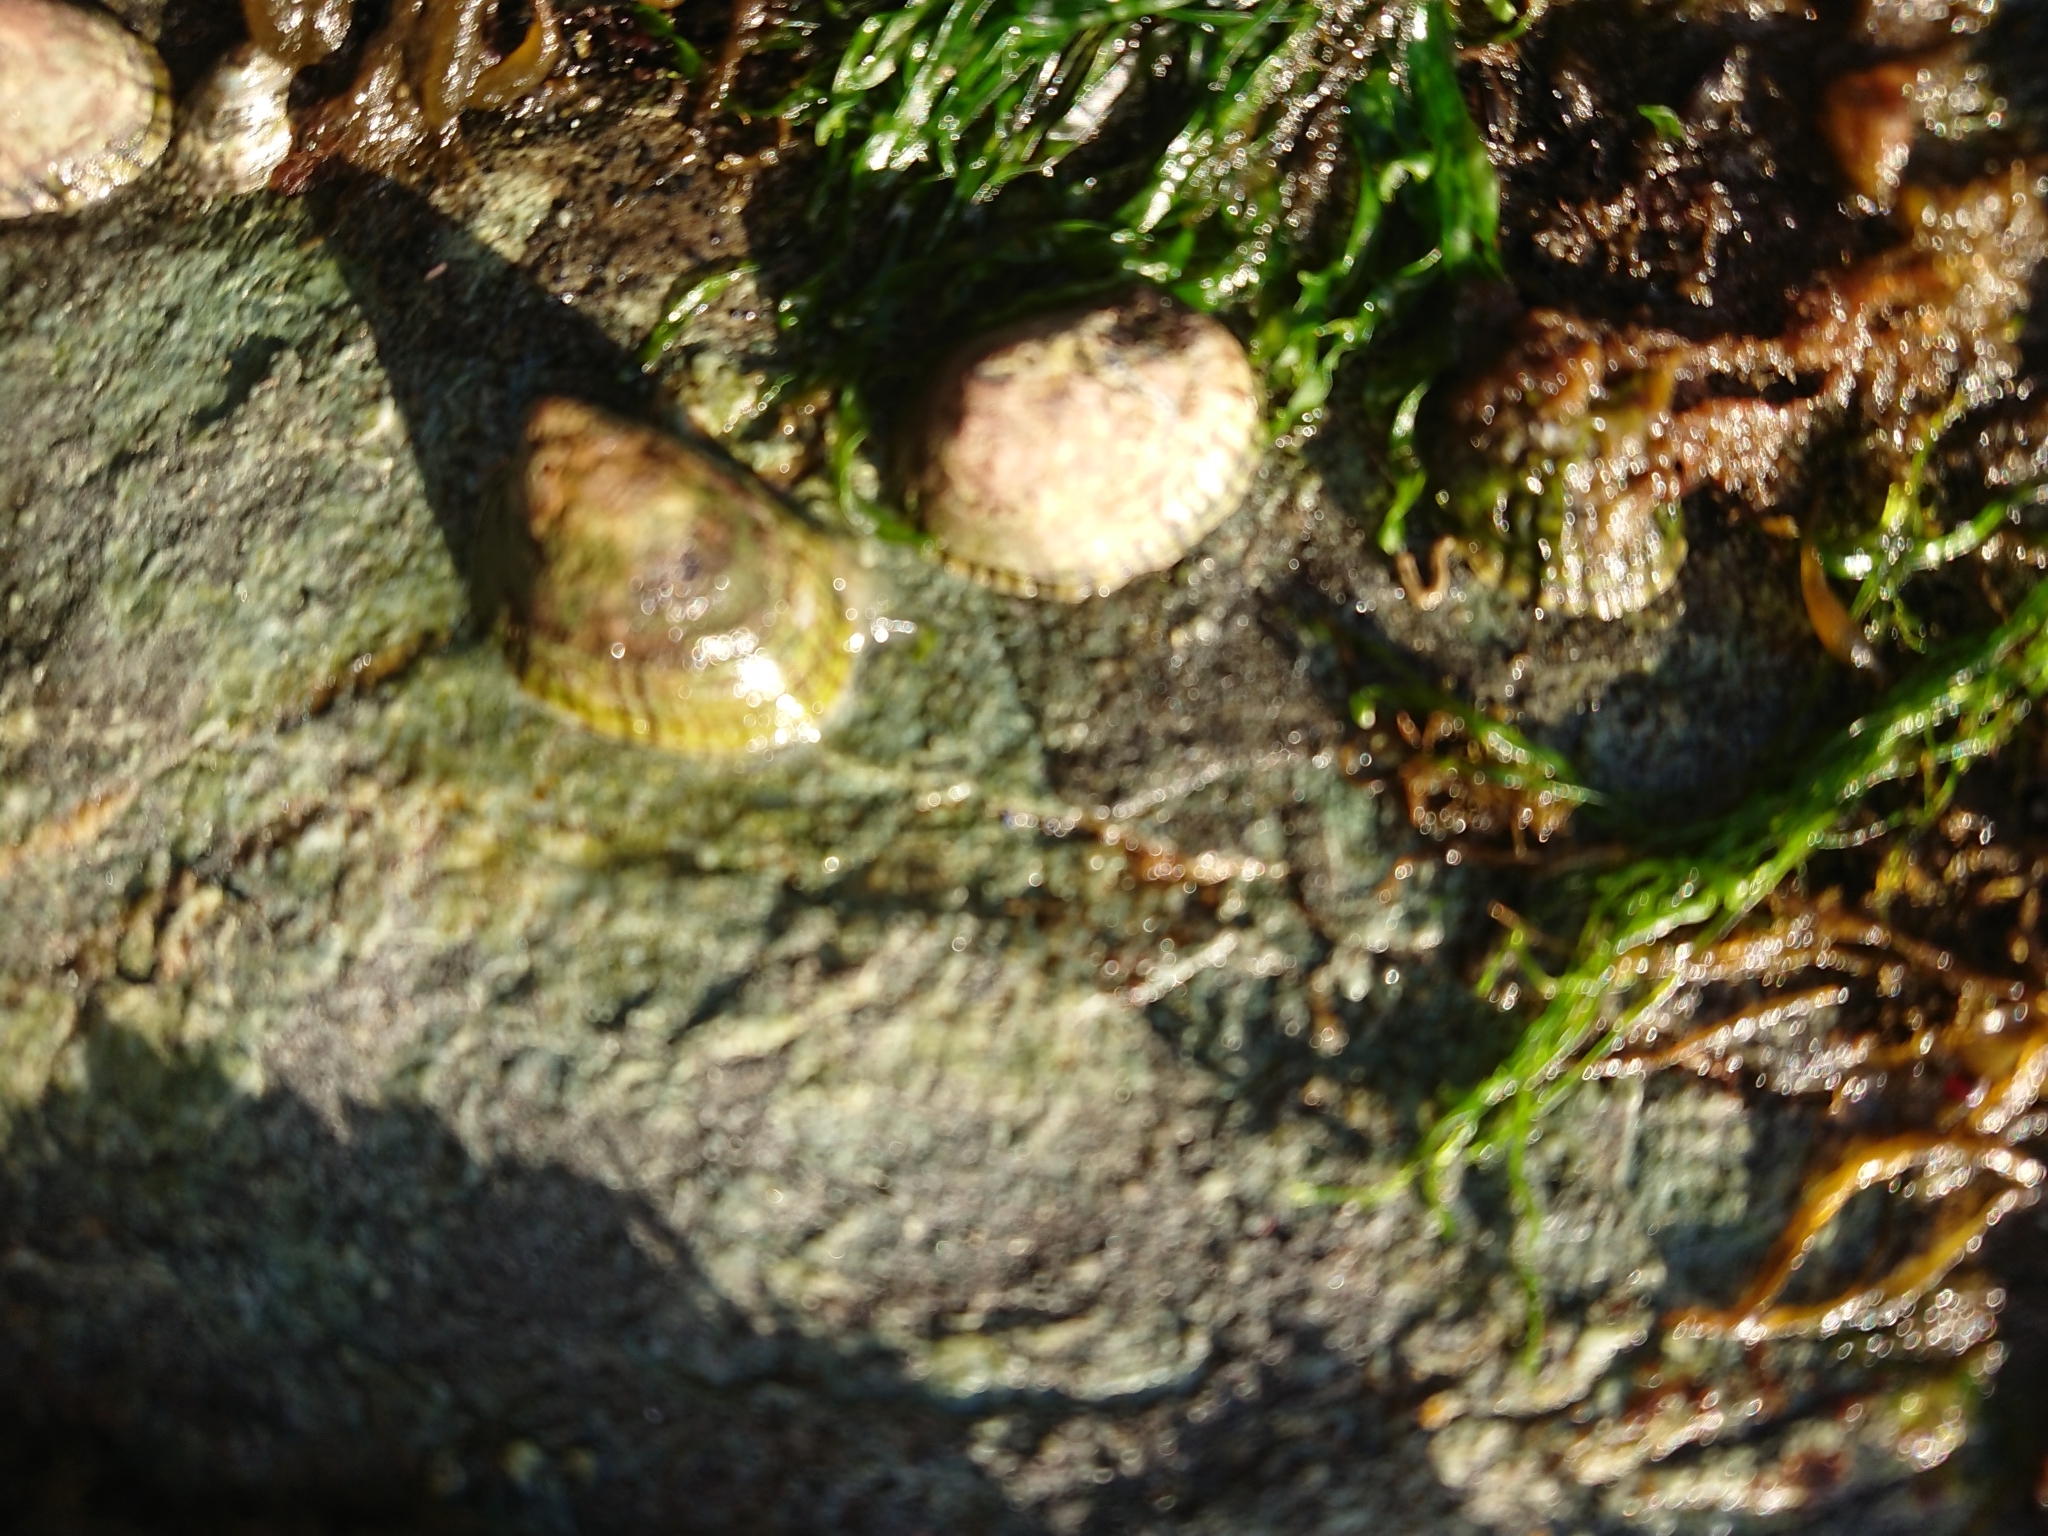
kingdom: Animalia
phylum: Mollusca
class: Gastropoda
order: Siphonariida
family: Siphonariidae
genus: Siphonaria
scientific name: Siphonaria lessonii
